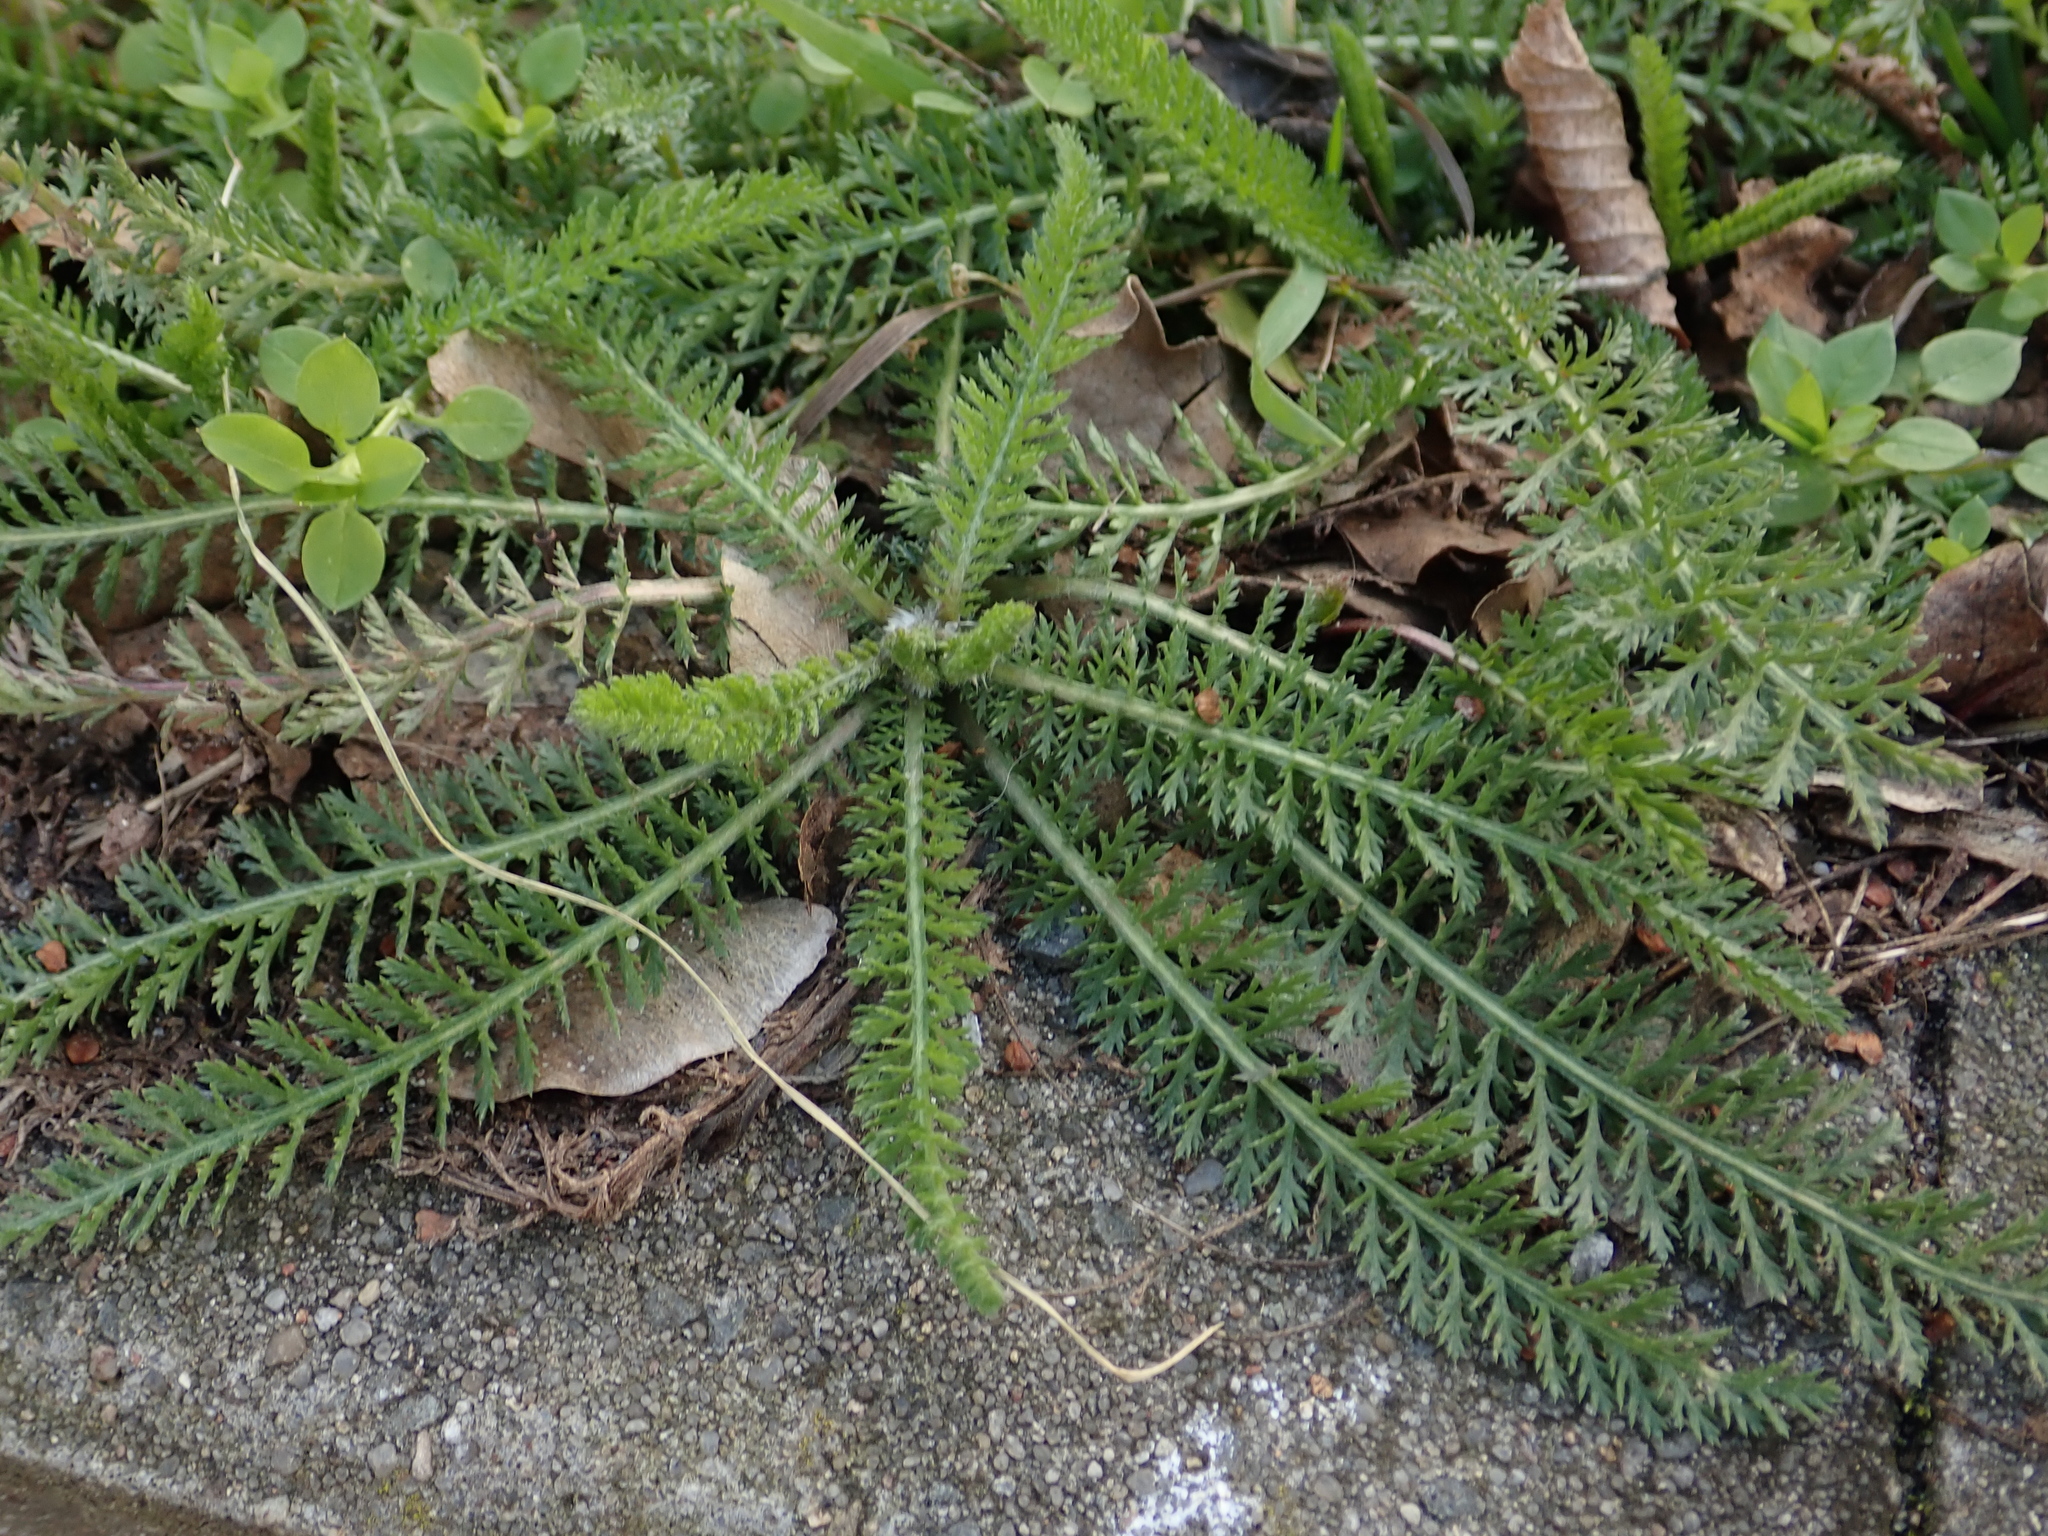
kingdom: Plantae
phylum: Tracheophyta
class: Magnoliopsida
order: Asterales
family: Asteraceae
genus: Achillea
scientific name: Achillea millefolium
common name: Yarrow
